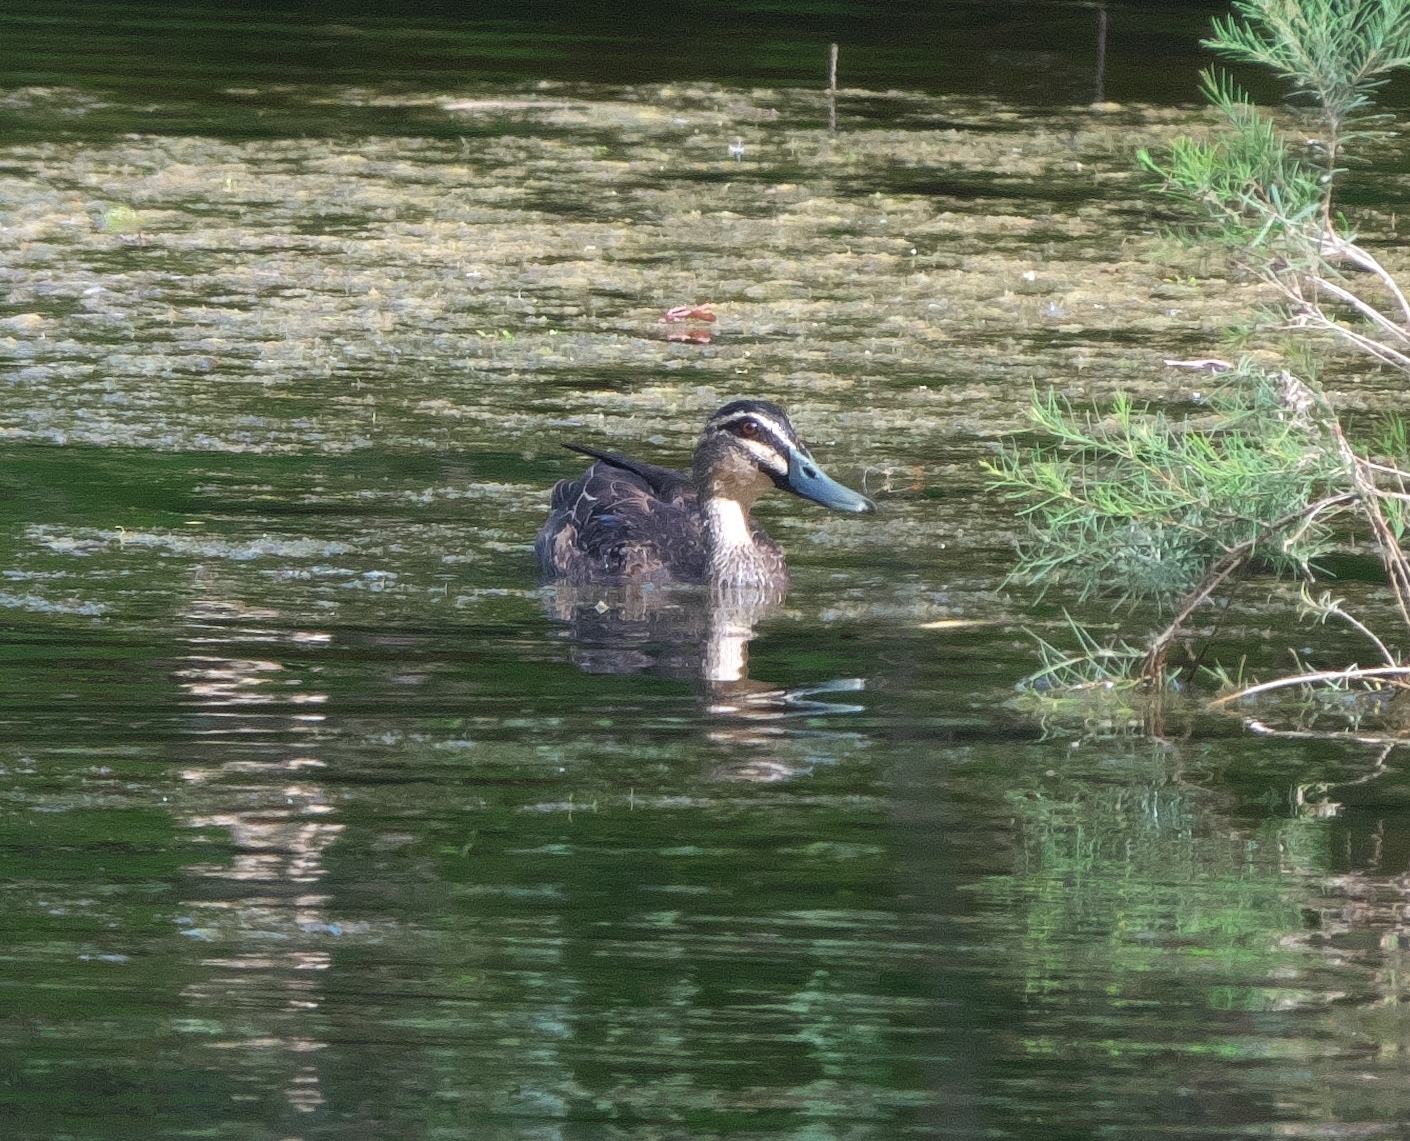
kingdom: Animalia
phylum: Chordata
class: Aves
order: Anseriformes
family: Anatidae
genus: Anas
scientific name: Anas superciliosa
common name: Pacific black duck
